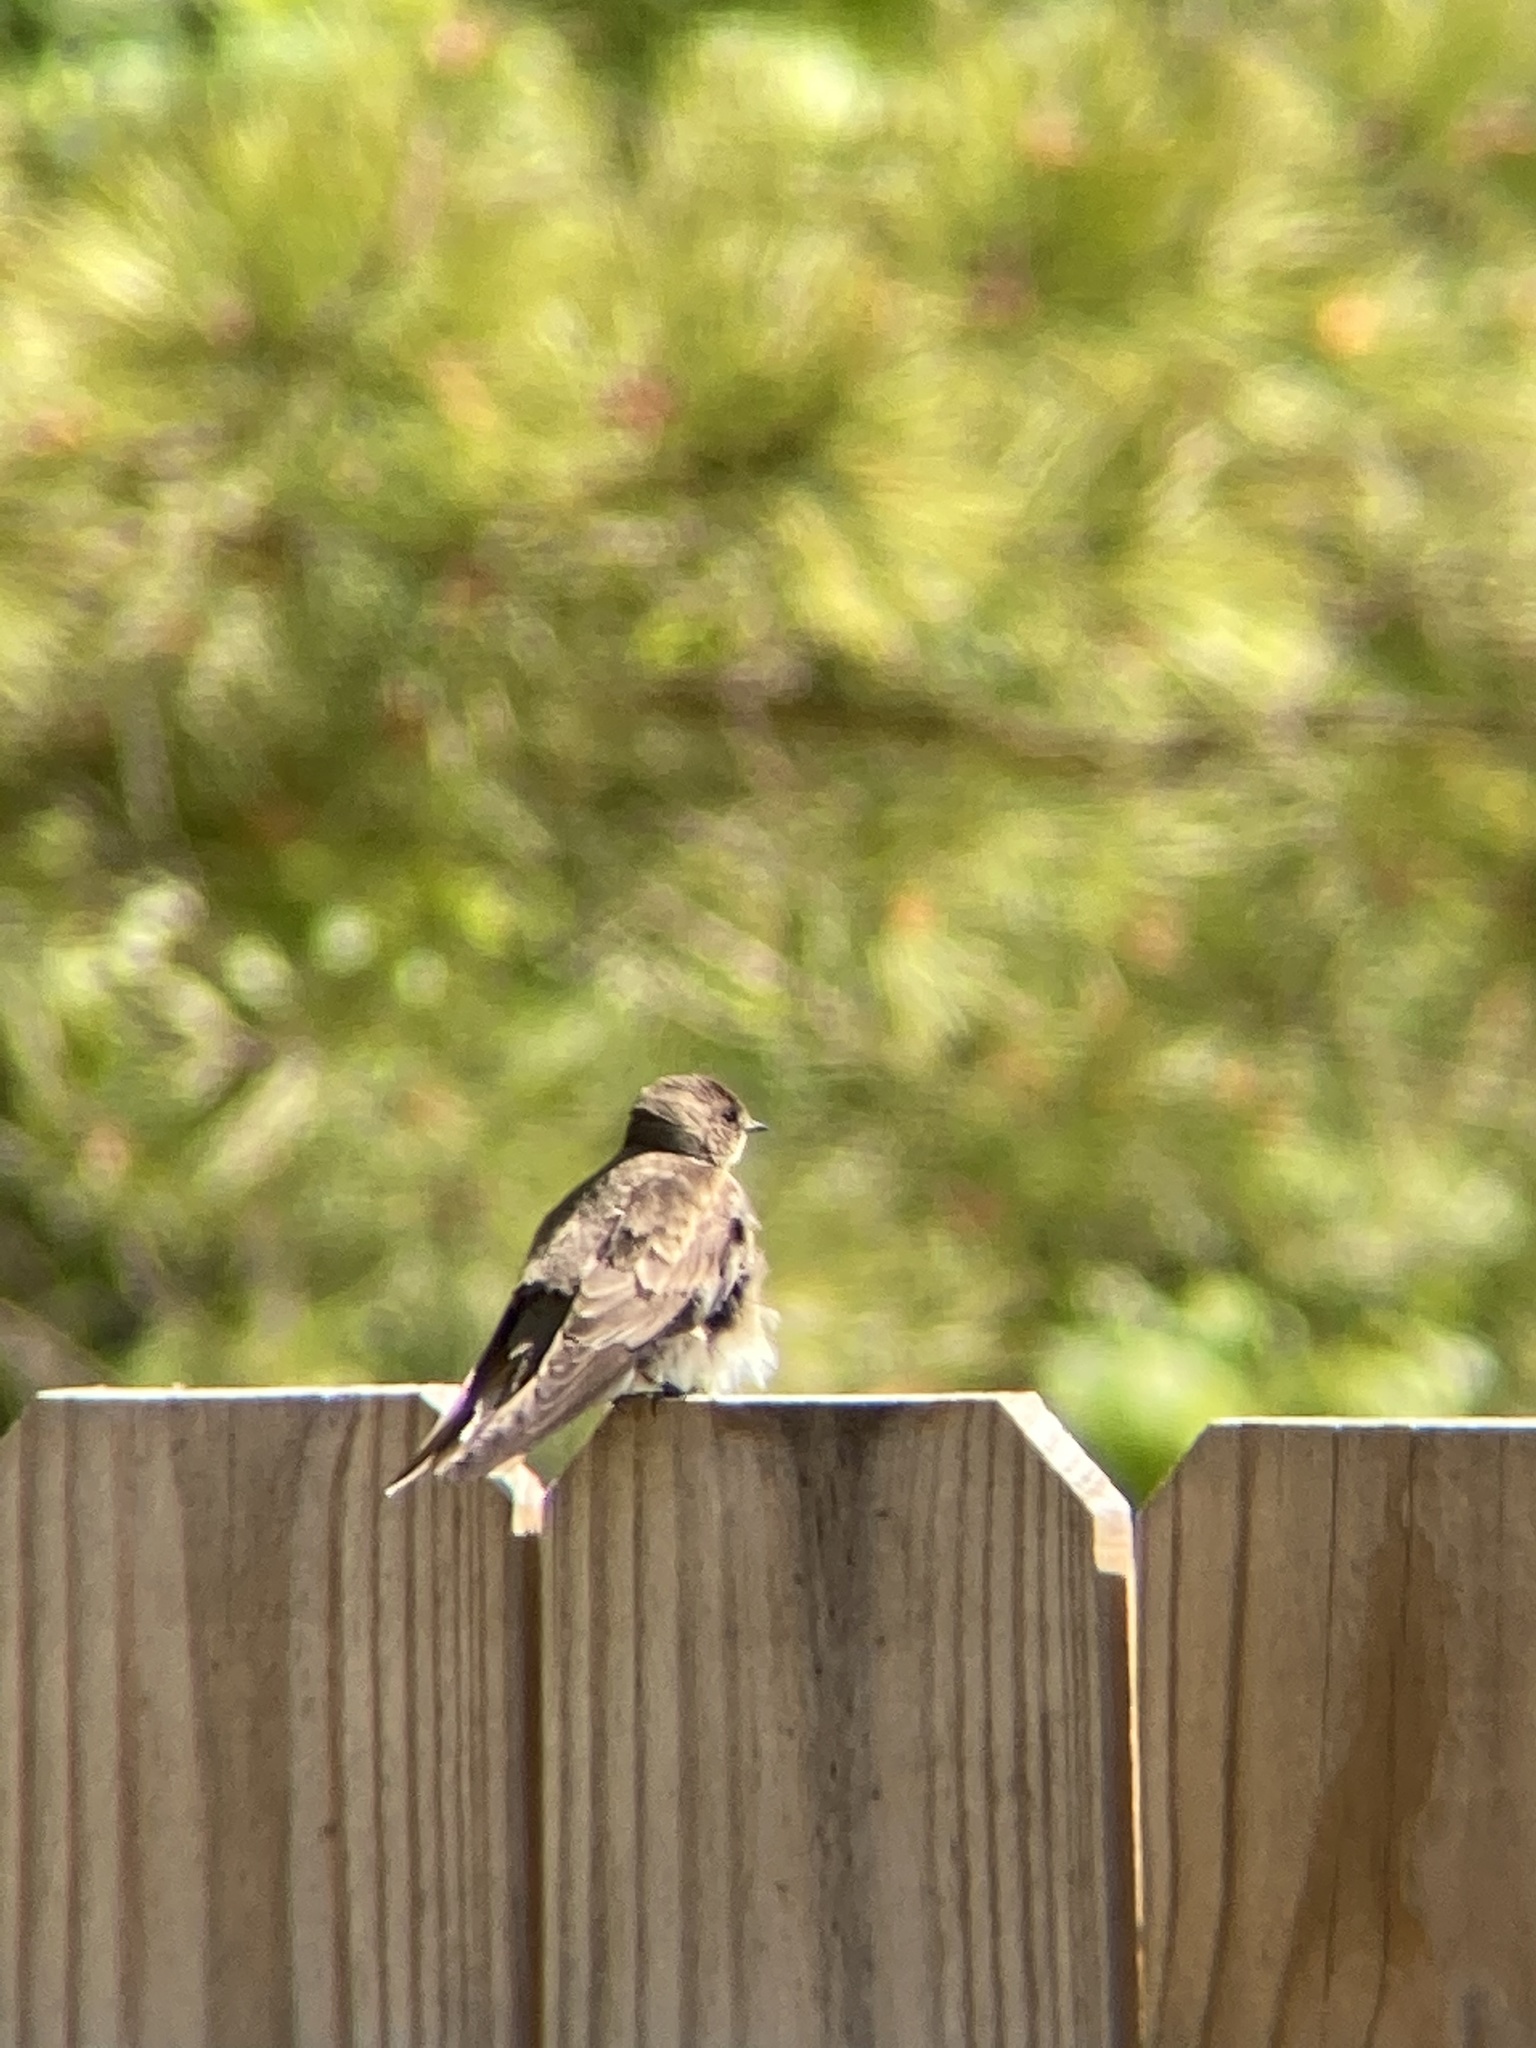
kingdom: Animalia
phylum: Chordata
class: Aves
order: Passeriformes
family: Hirundinidae
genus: Stelgidopteryx
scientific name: Stelgidopteryx serripennis
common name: Northern rough-winged swallow
